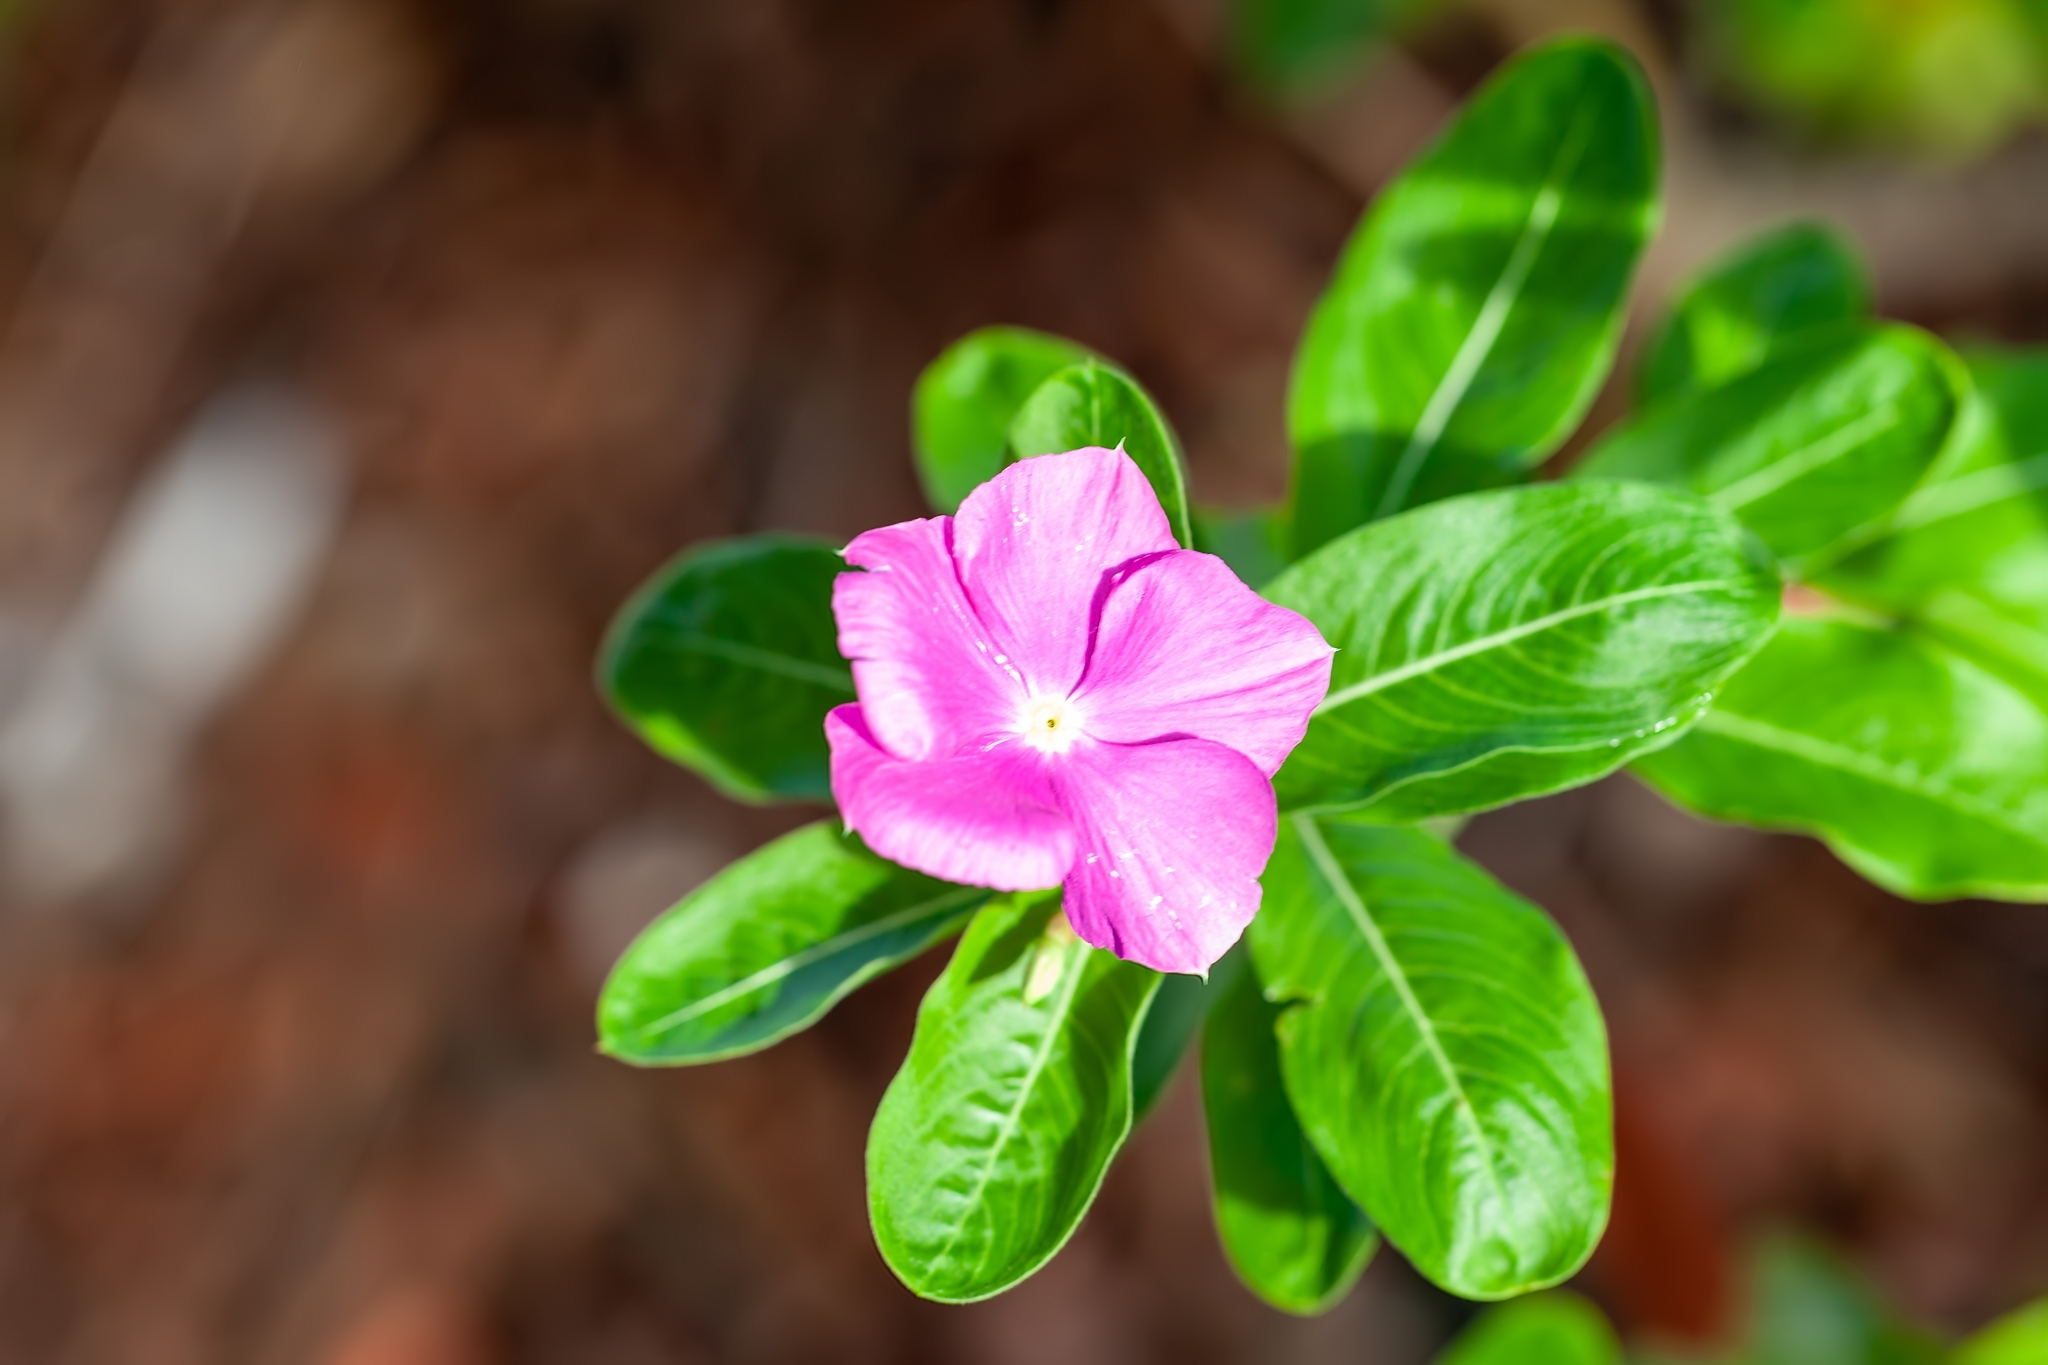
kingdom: Plantae
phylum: Tracheophyta
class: Magnoliopsida
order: Gentianales
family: Apocynaceae
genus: Catharanthus
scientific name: Catharanthus roseus
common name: Madagascar periwinkle
